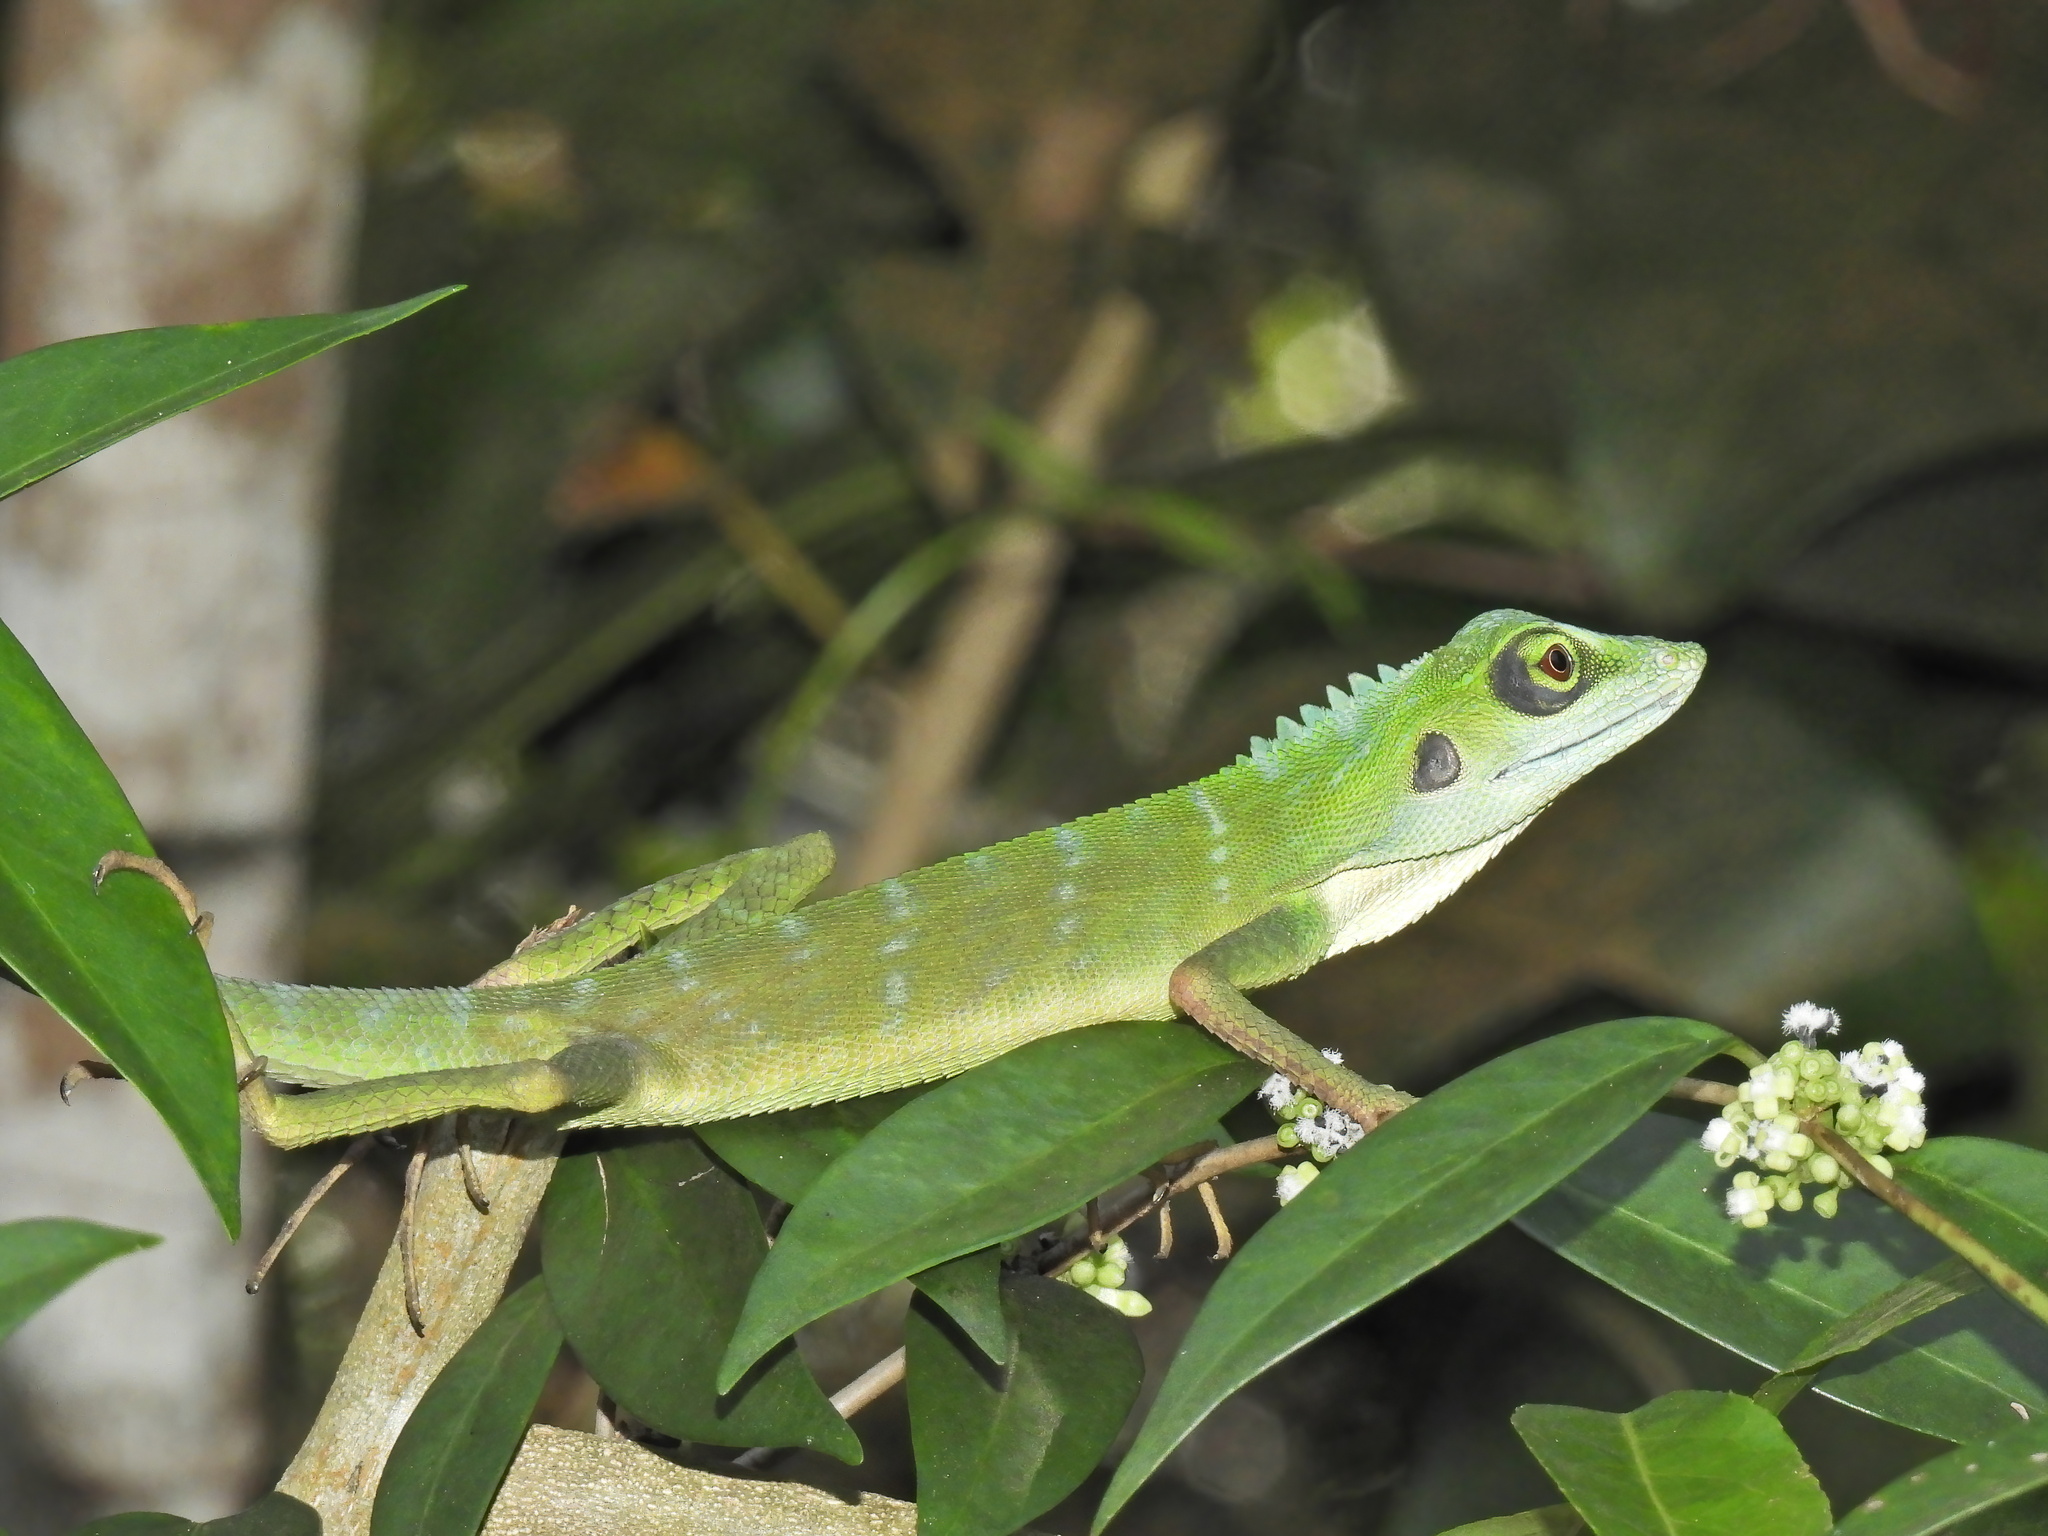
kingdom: Animalia
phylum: Chordata
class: Squamata
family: Agamidae
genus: Bronchocela
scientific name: Bronchocela cristatella
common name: Green crested lizard
